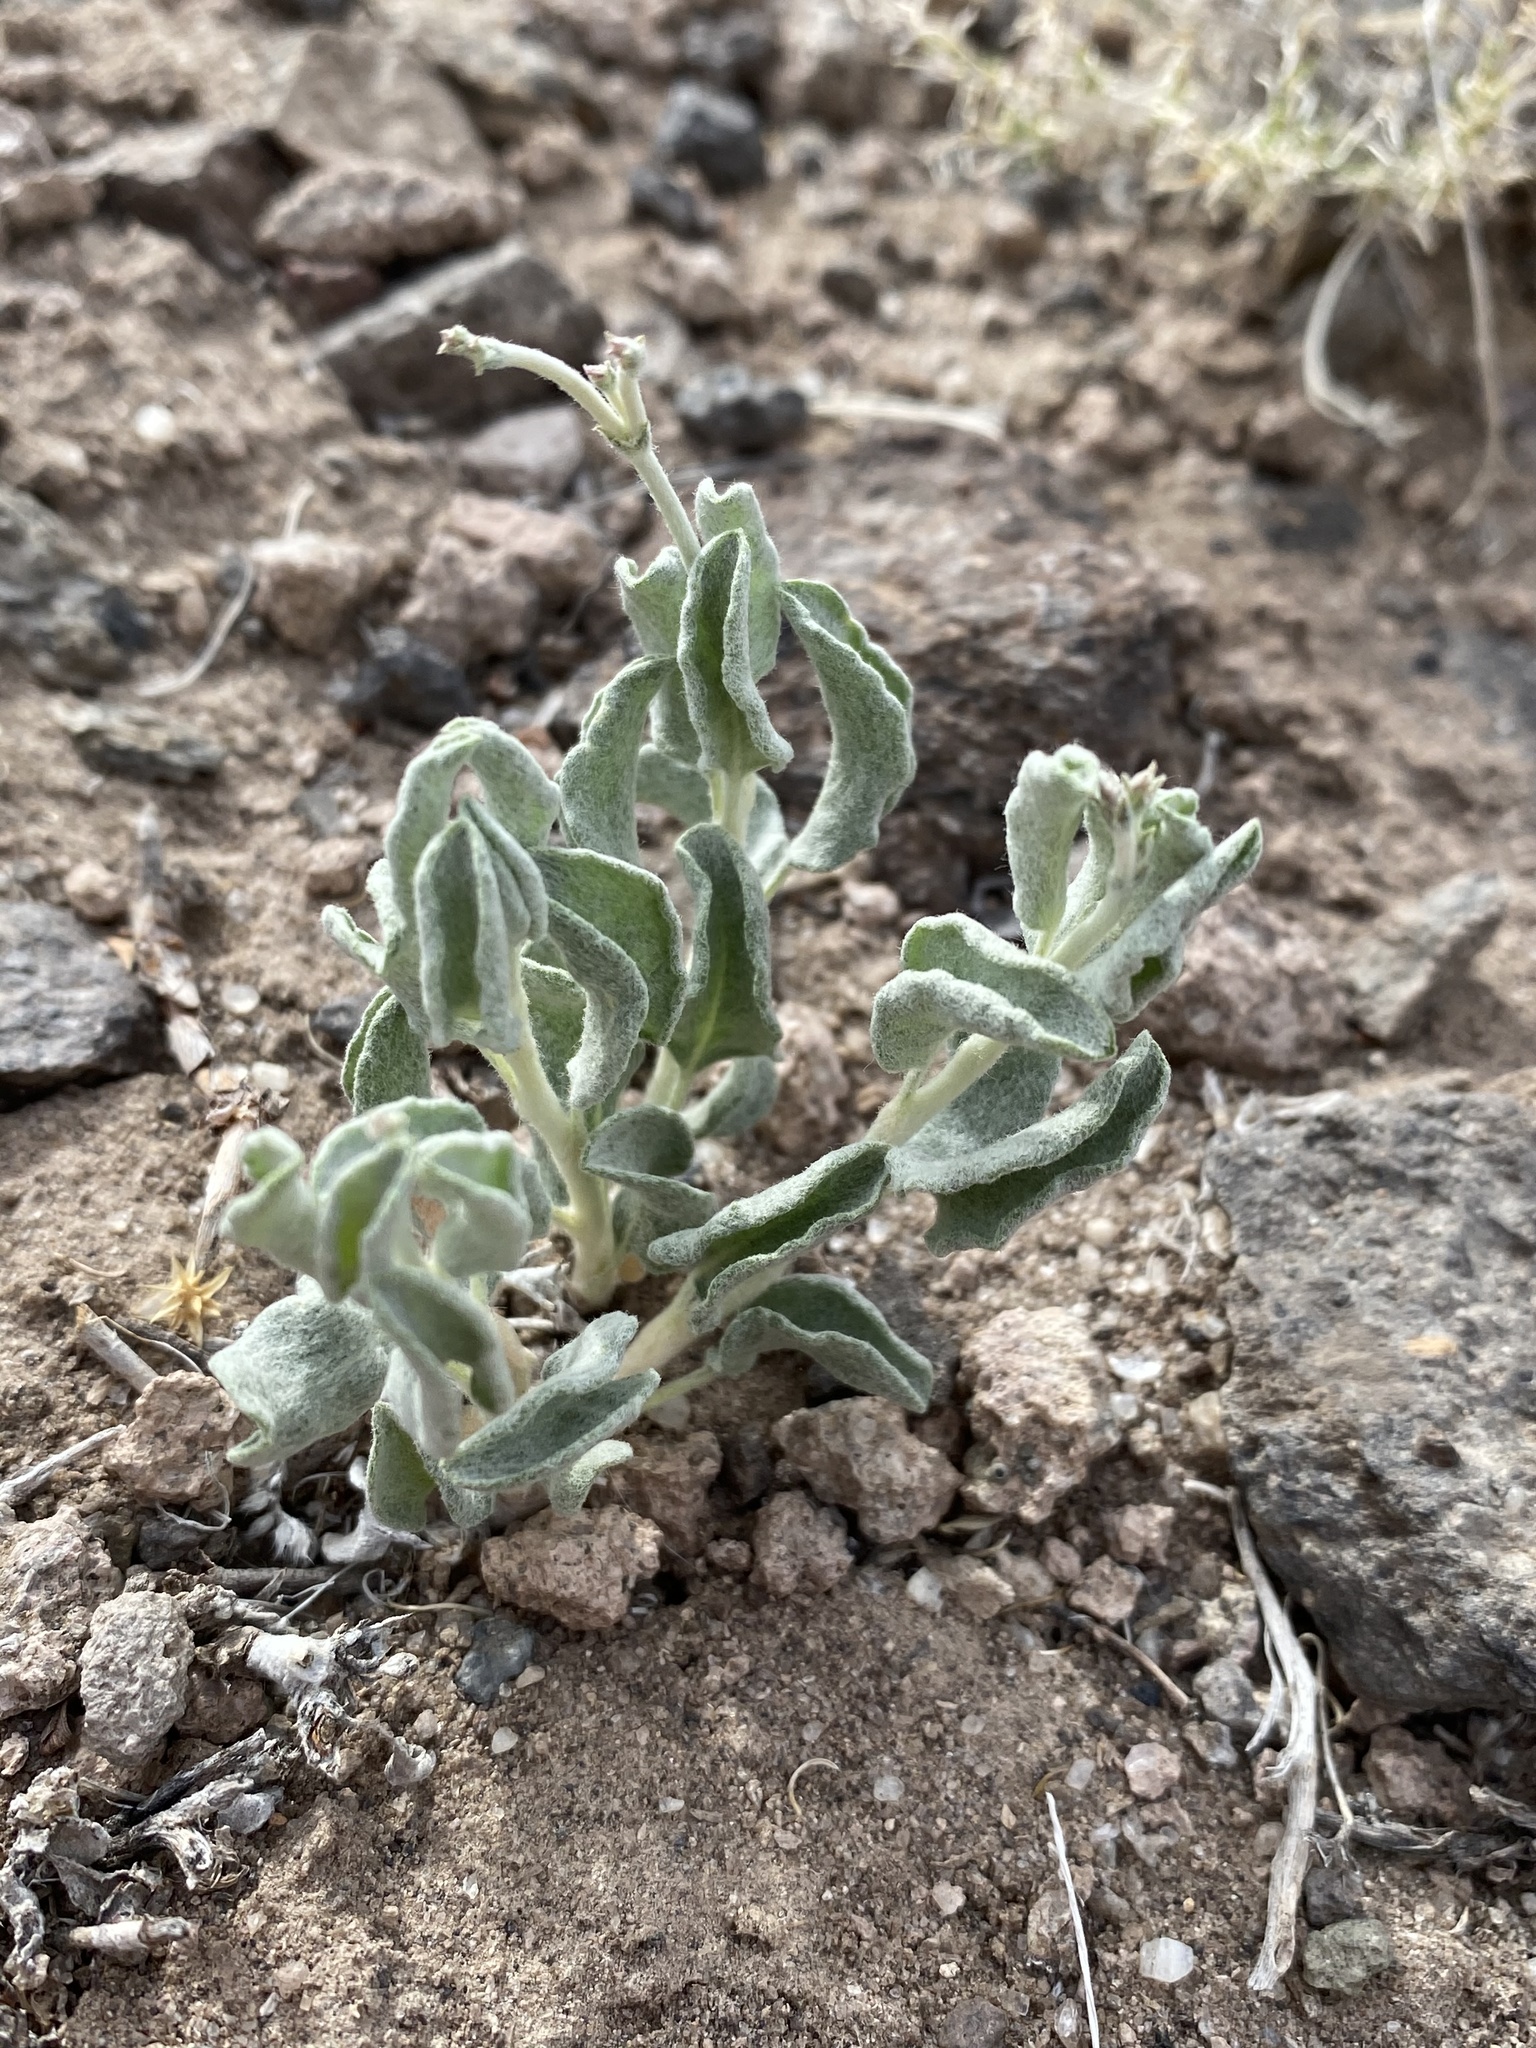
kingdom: Plantae
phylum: Tracheophyta
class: Magnoliopsida
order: Caryophyllales
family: Polygonaceae
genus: Eriogonum
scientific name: Eriogonum nummulare
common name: Kearney wild buckwheat
